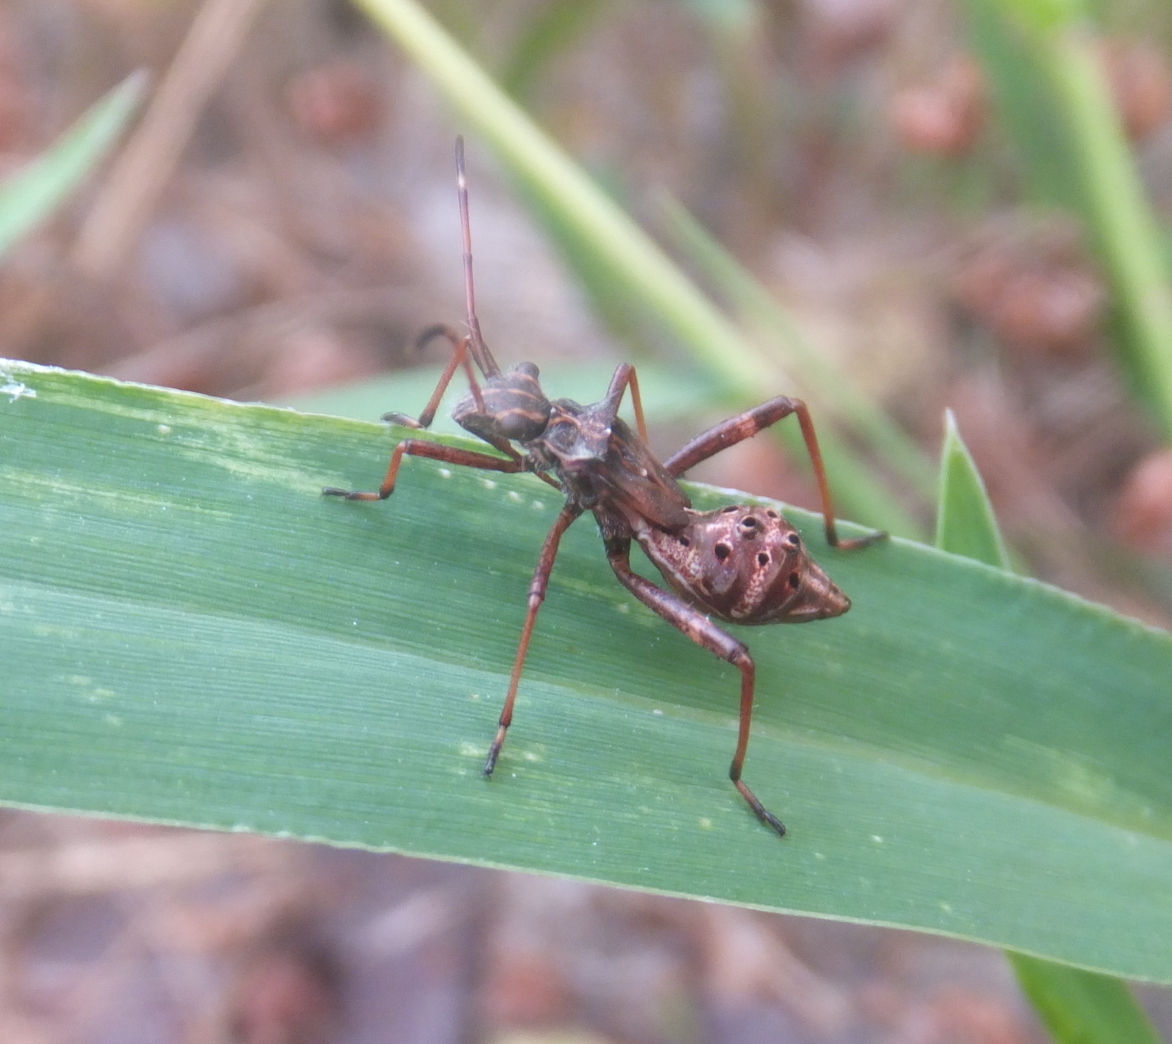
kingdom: Animalia
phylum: Arthropoda
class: Insecta
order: Hemiptera
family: Alydidae
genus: Camptopus
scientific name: Camptopus lateralis
